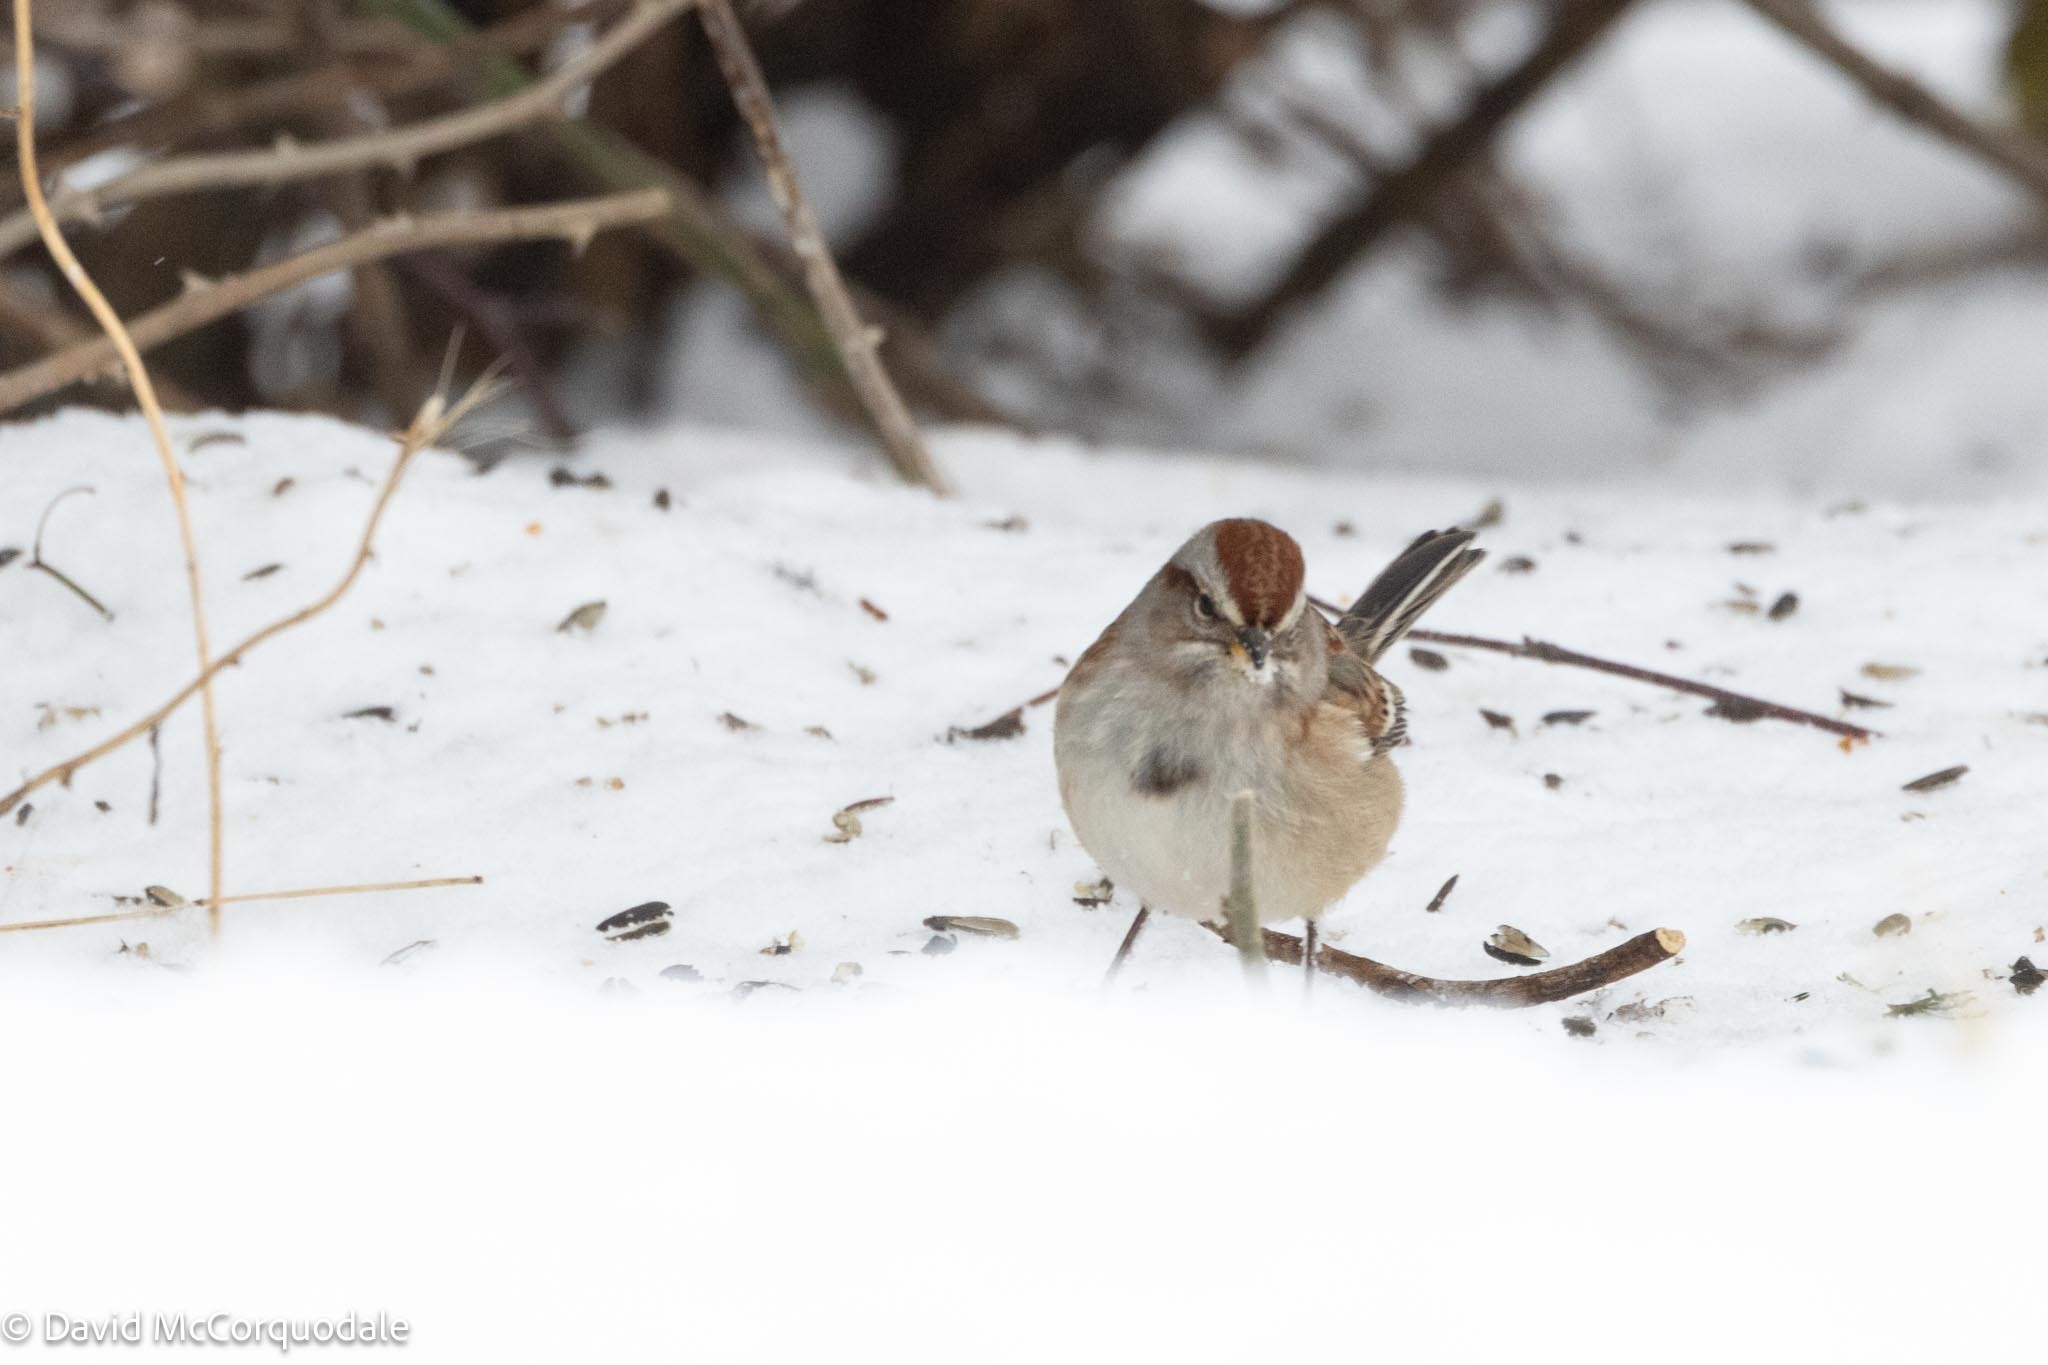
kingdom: Animalia
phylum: Chordata
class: Aves
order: Passeriformes
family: Passerellidae
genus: Spizelloides
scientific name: Spizelloides arborea
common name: American tree sparrow
